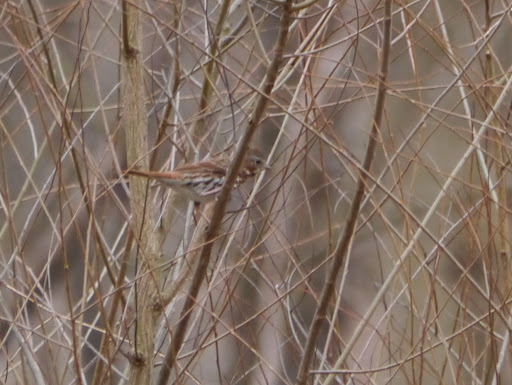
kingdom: Animalia
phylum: Chordata
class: Aves
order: Passeriformes
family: Passerellidae
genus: Passerella
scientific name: Passerella iliaca
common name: Fox sparrow
